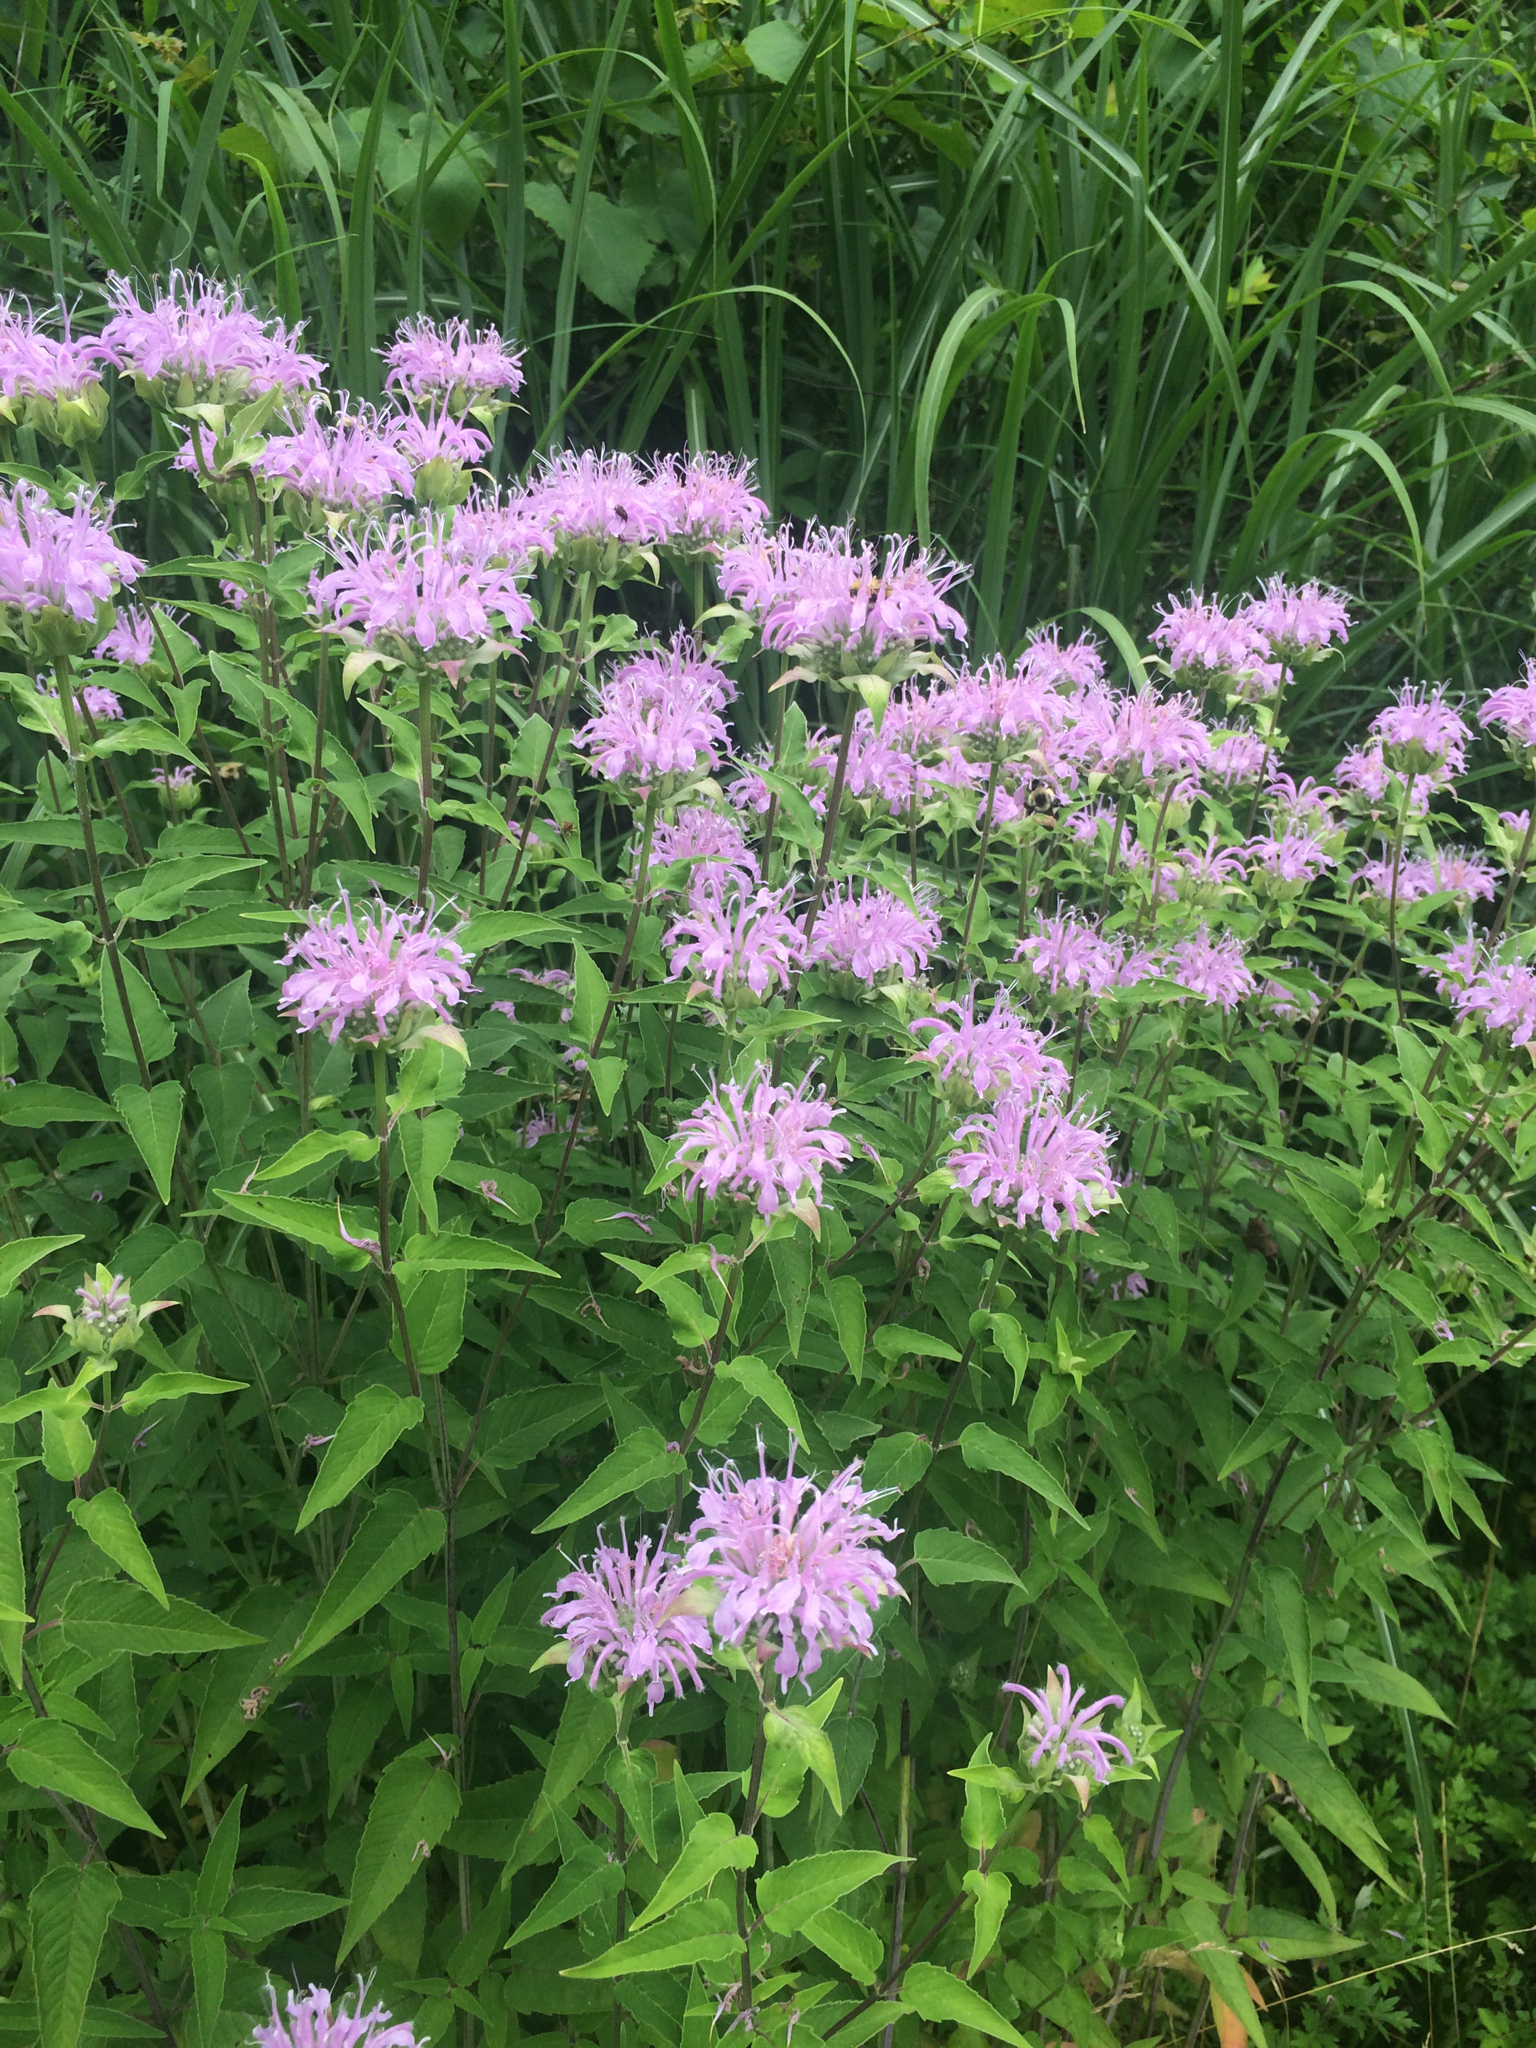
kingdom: Plantae
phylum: Tracheophyta
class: Magnoliopsida
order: Lamiales
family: Lamiaceae
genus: Monarda
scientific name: Monarda fistulosa
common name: Purple beebalm
